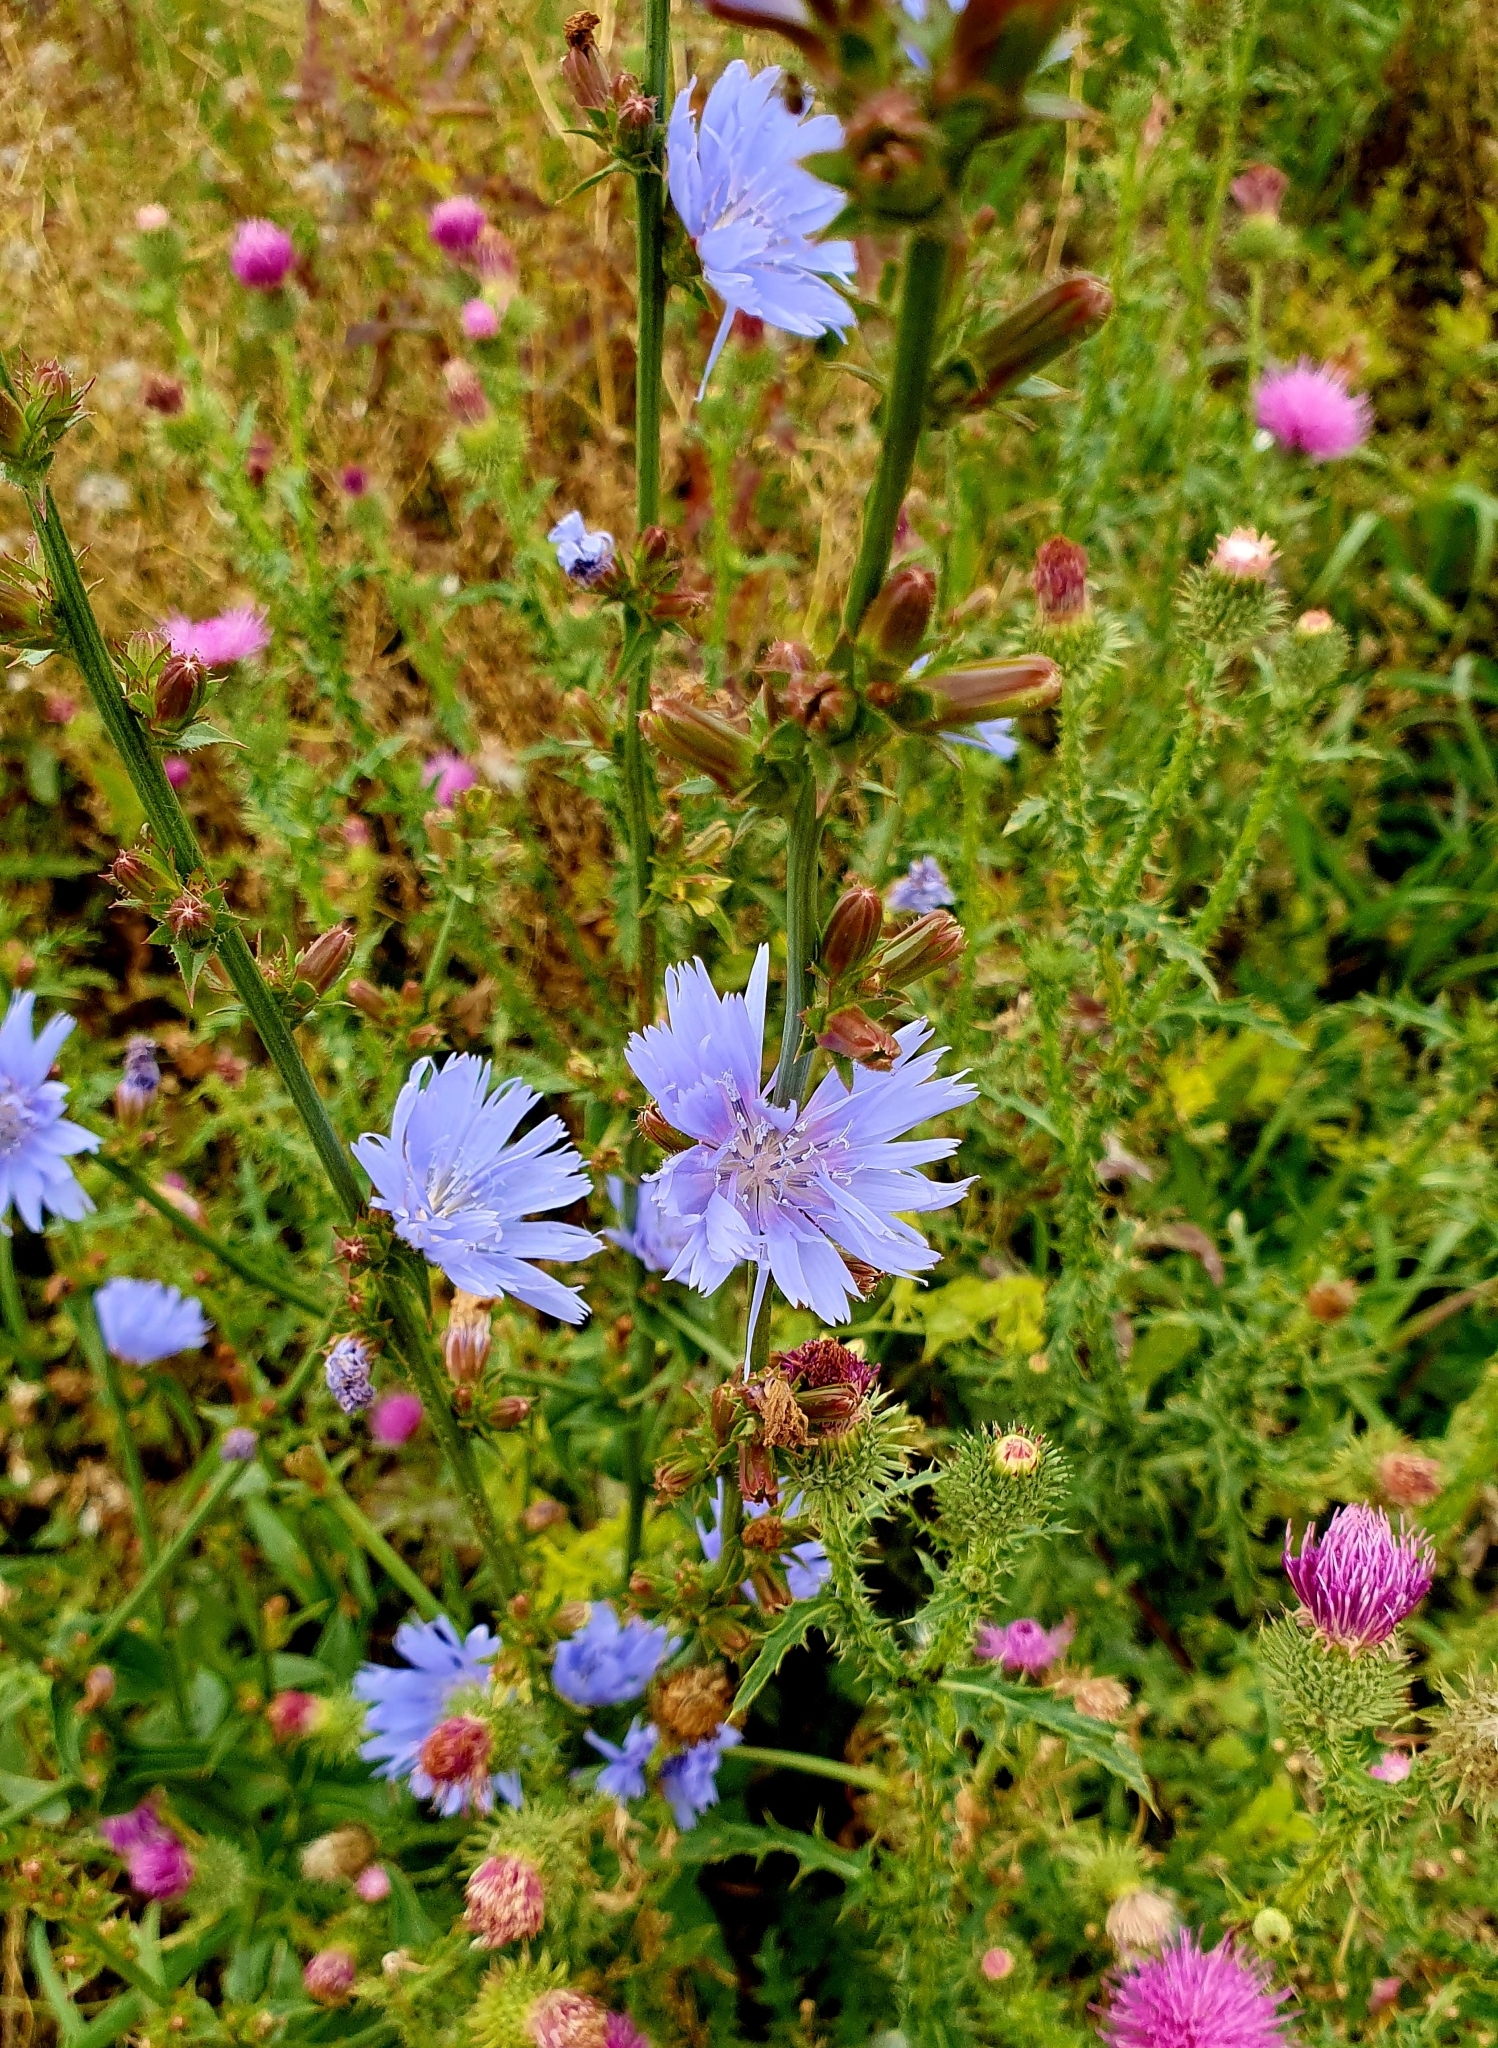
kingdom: Plantae
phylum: Tracheophyta
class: Magnoliopsida
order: Asterales
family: Asteraceae
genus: Cichorium
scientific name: Cichorium intybus
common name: Chicory
